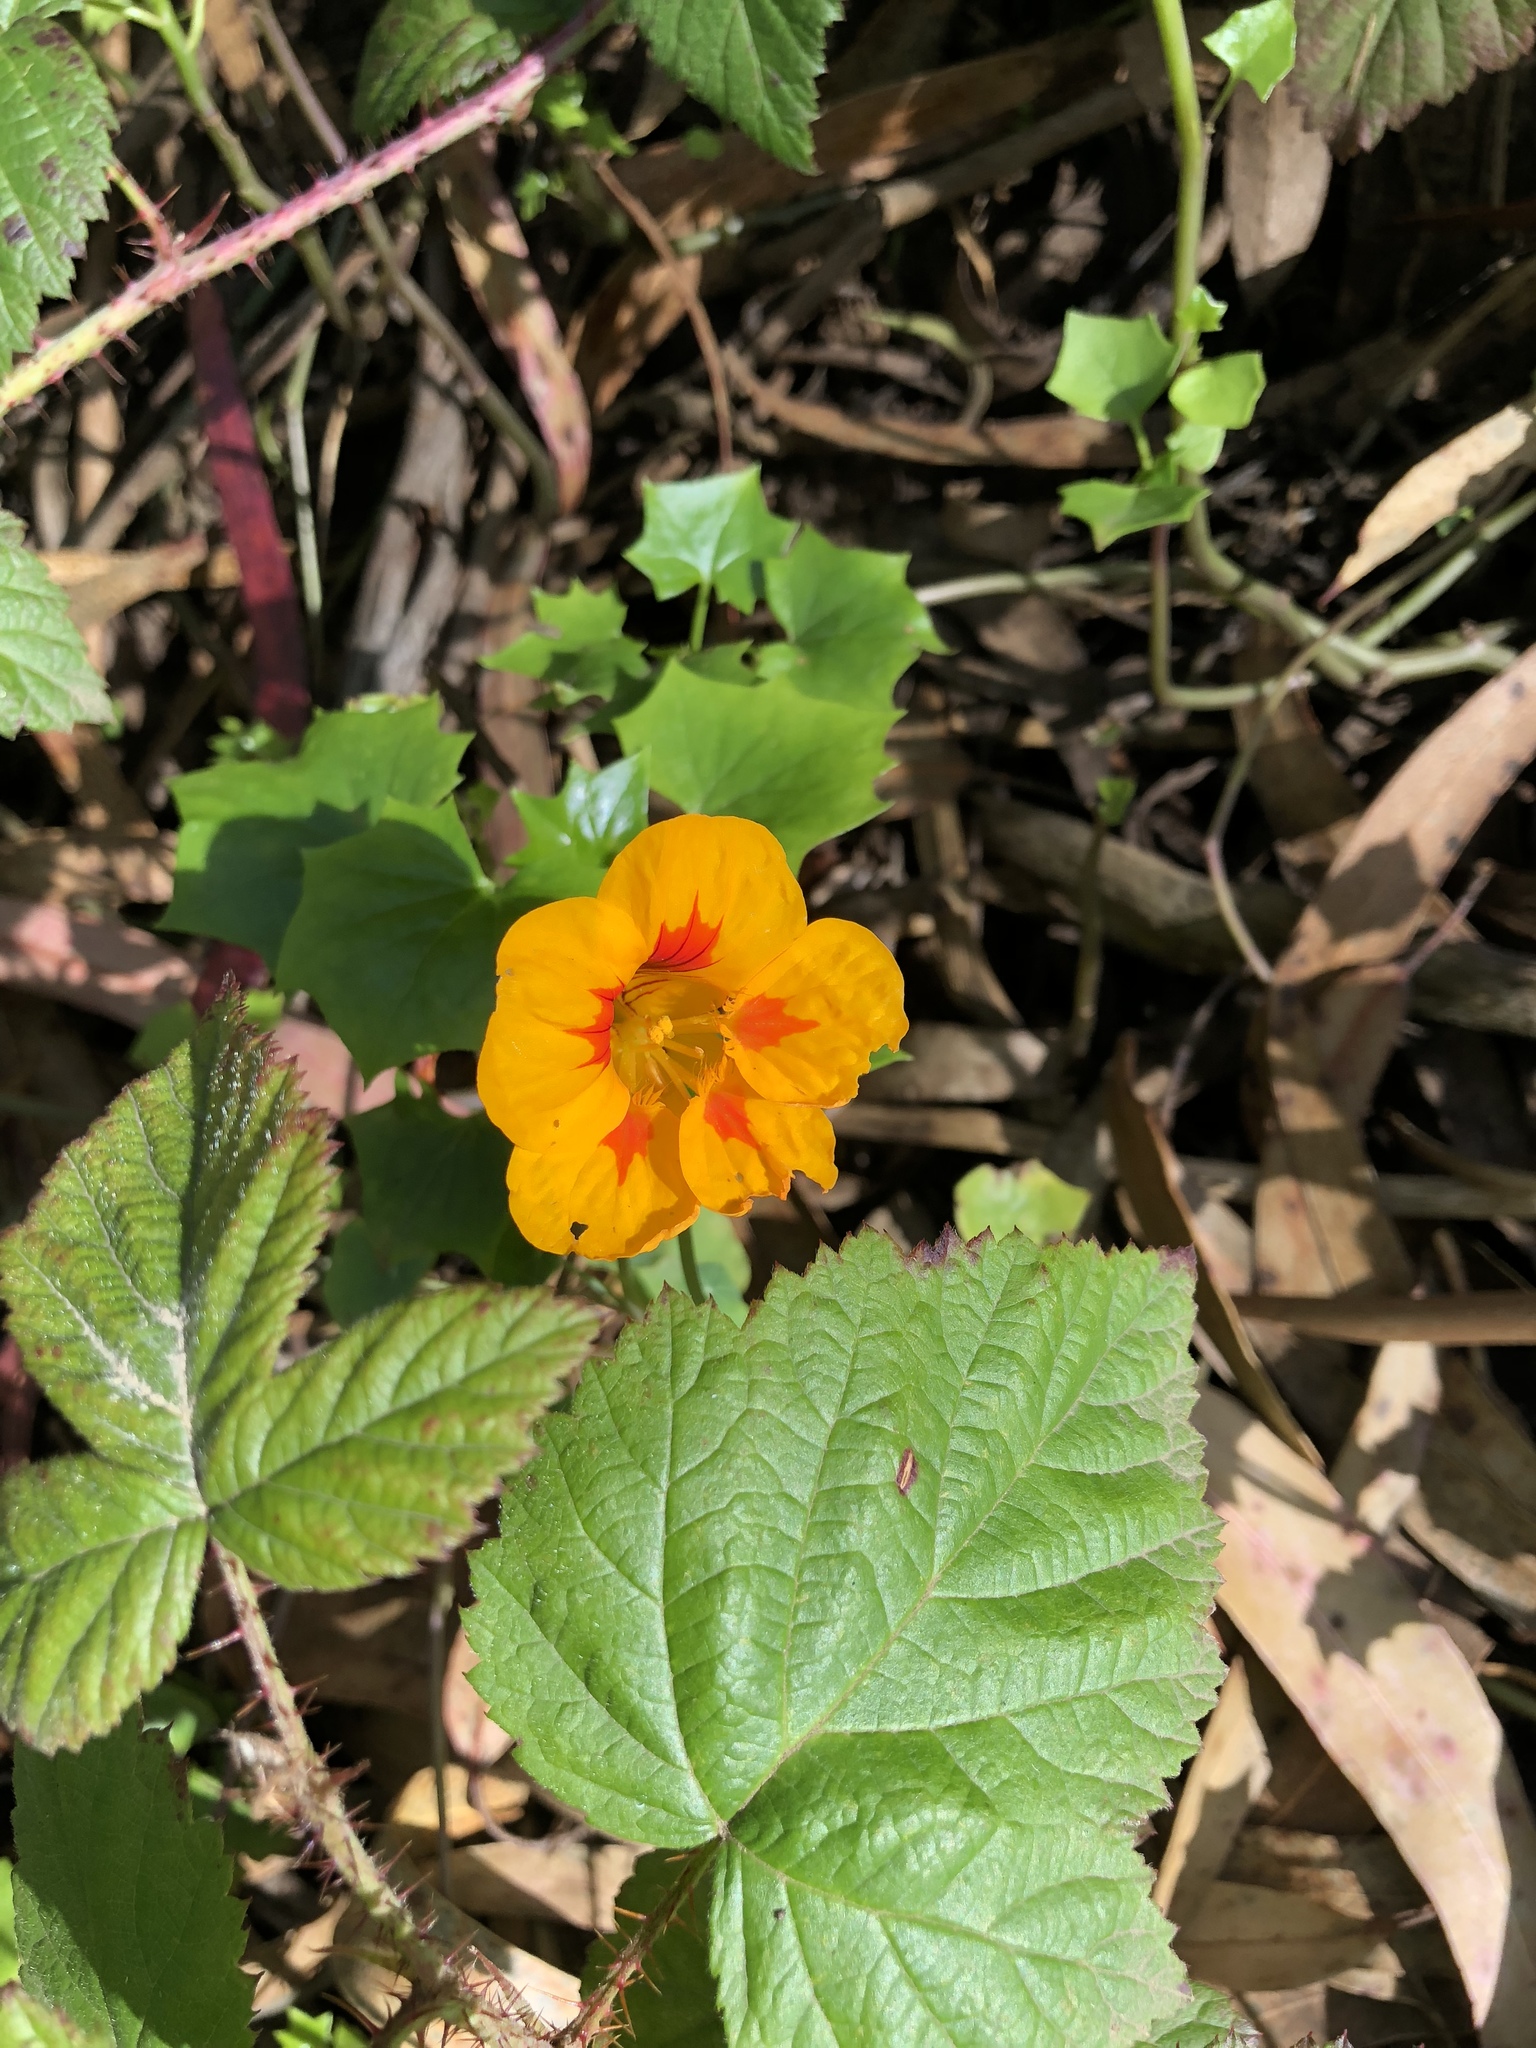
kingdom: Plantae
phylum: Tracheophyta
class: Magnoliopsida
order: Brassicales
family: Tropaeolaceae
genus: Tropaeolum
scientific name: Tropaeolum majus
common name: Nasturtium
